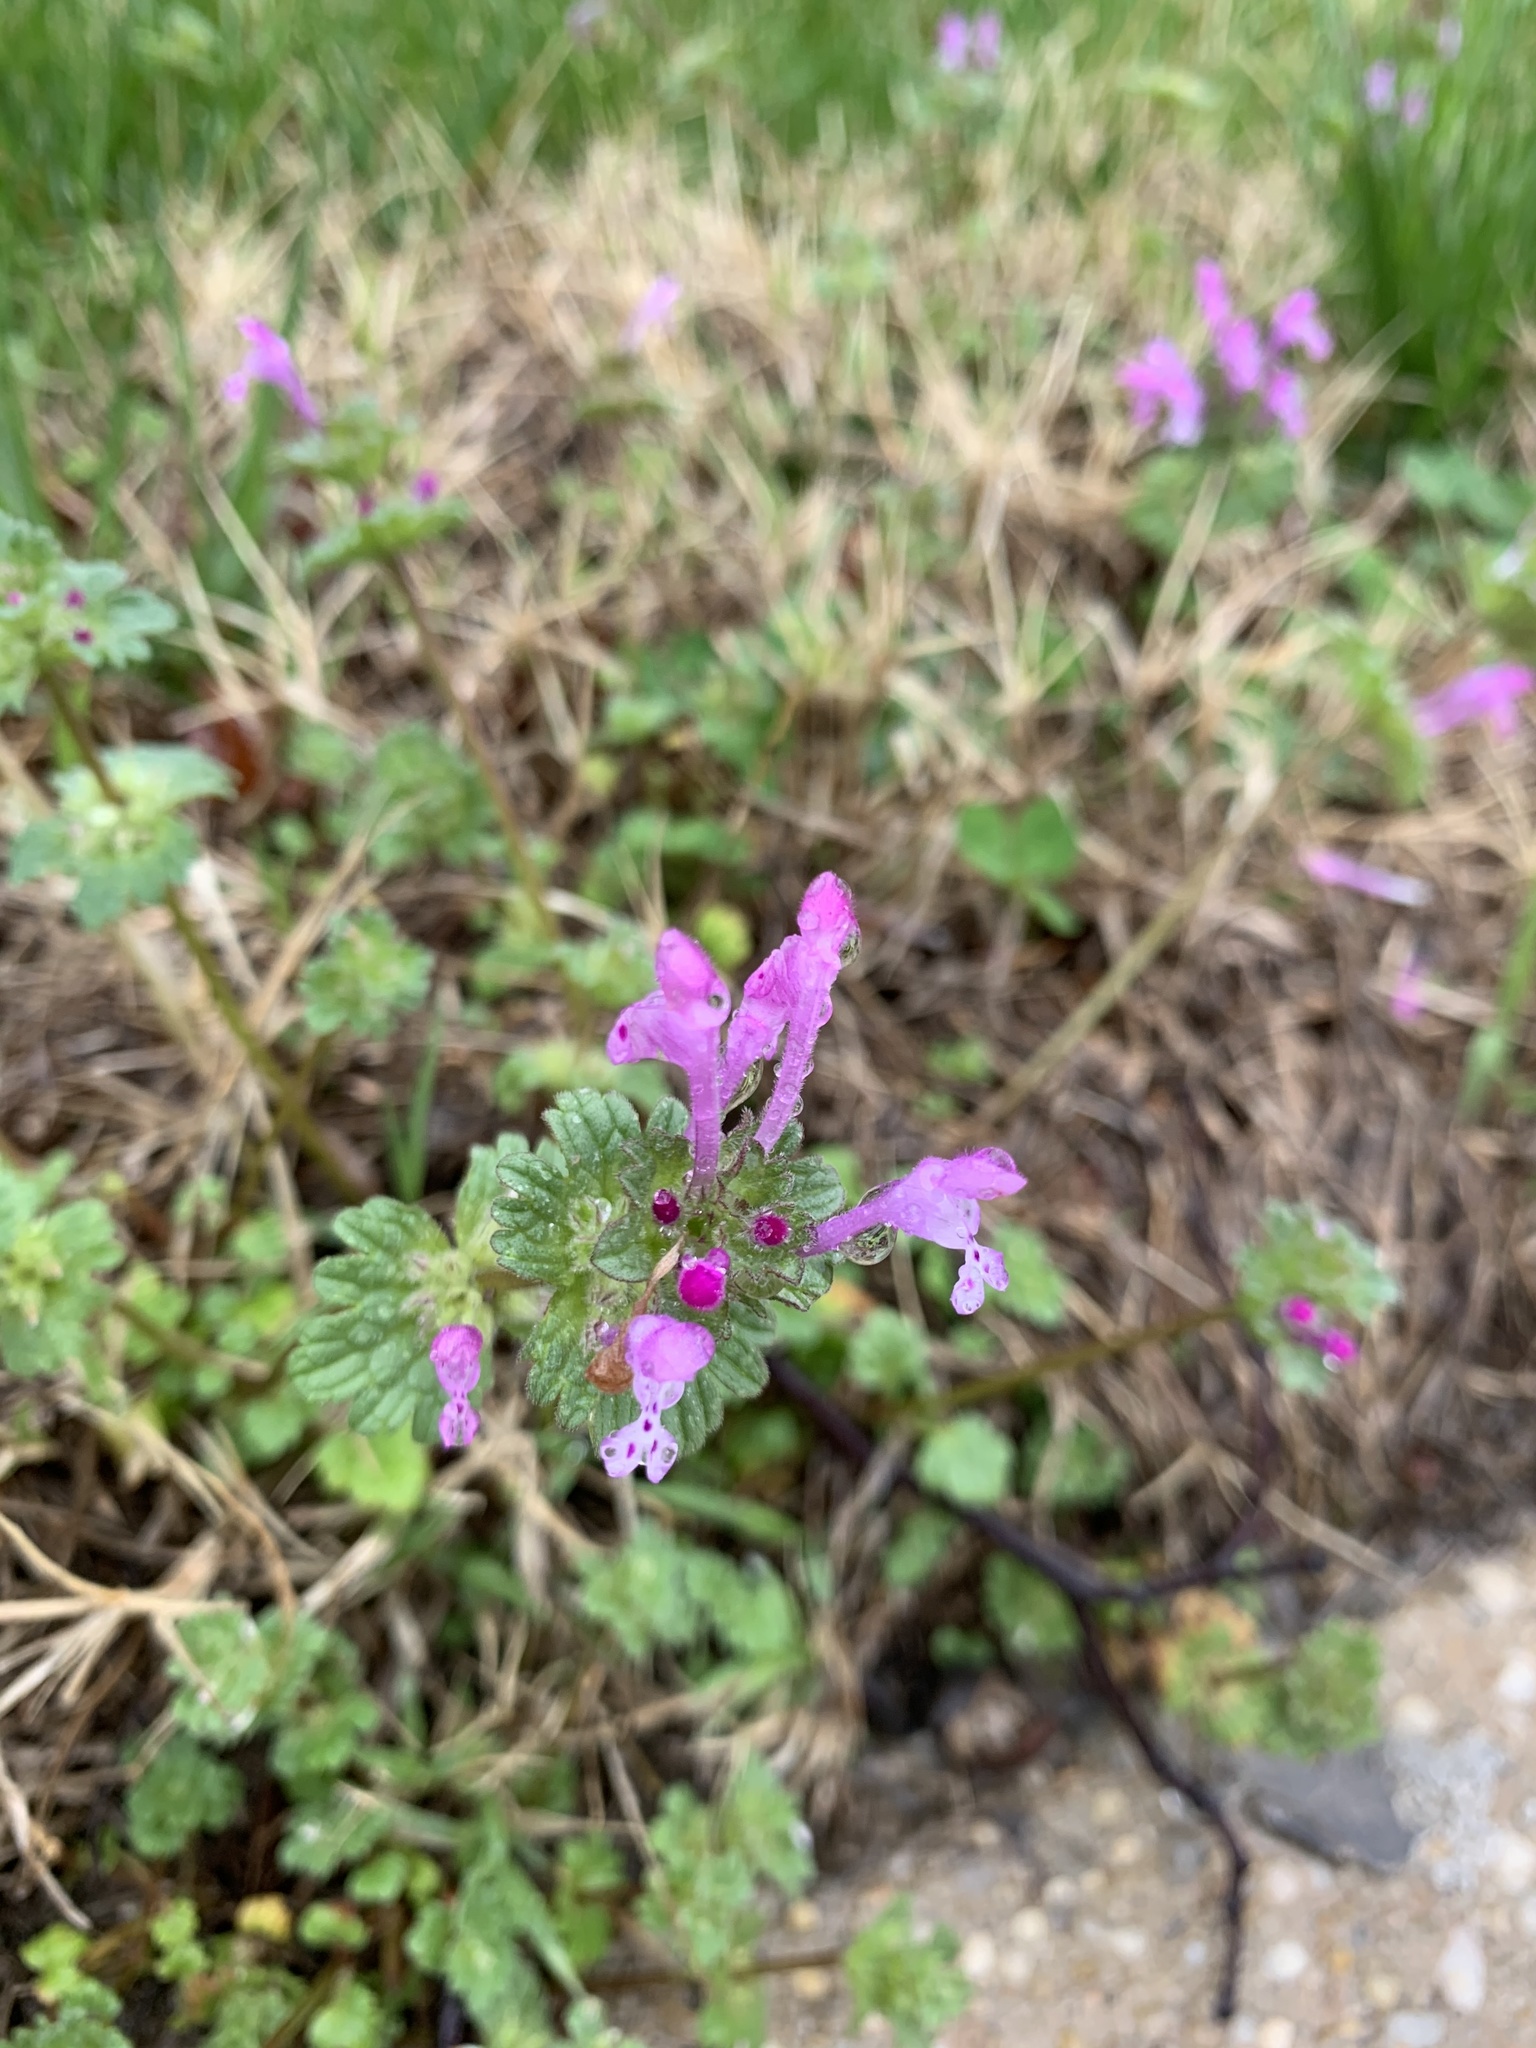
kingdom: Plantae
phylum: Tracheophyta
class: Magnoliopsida
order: Lamiales
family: Lamiaceae
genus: Lamium
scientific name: Lamium amplexicaule
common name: Henbit dead-nettle
